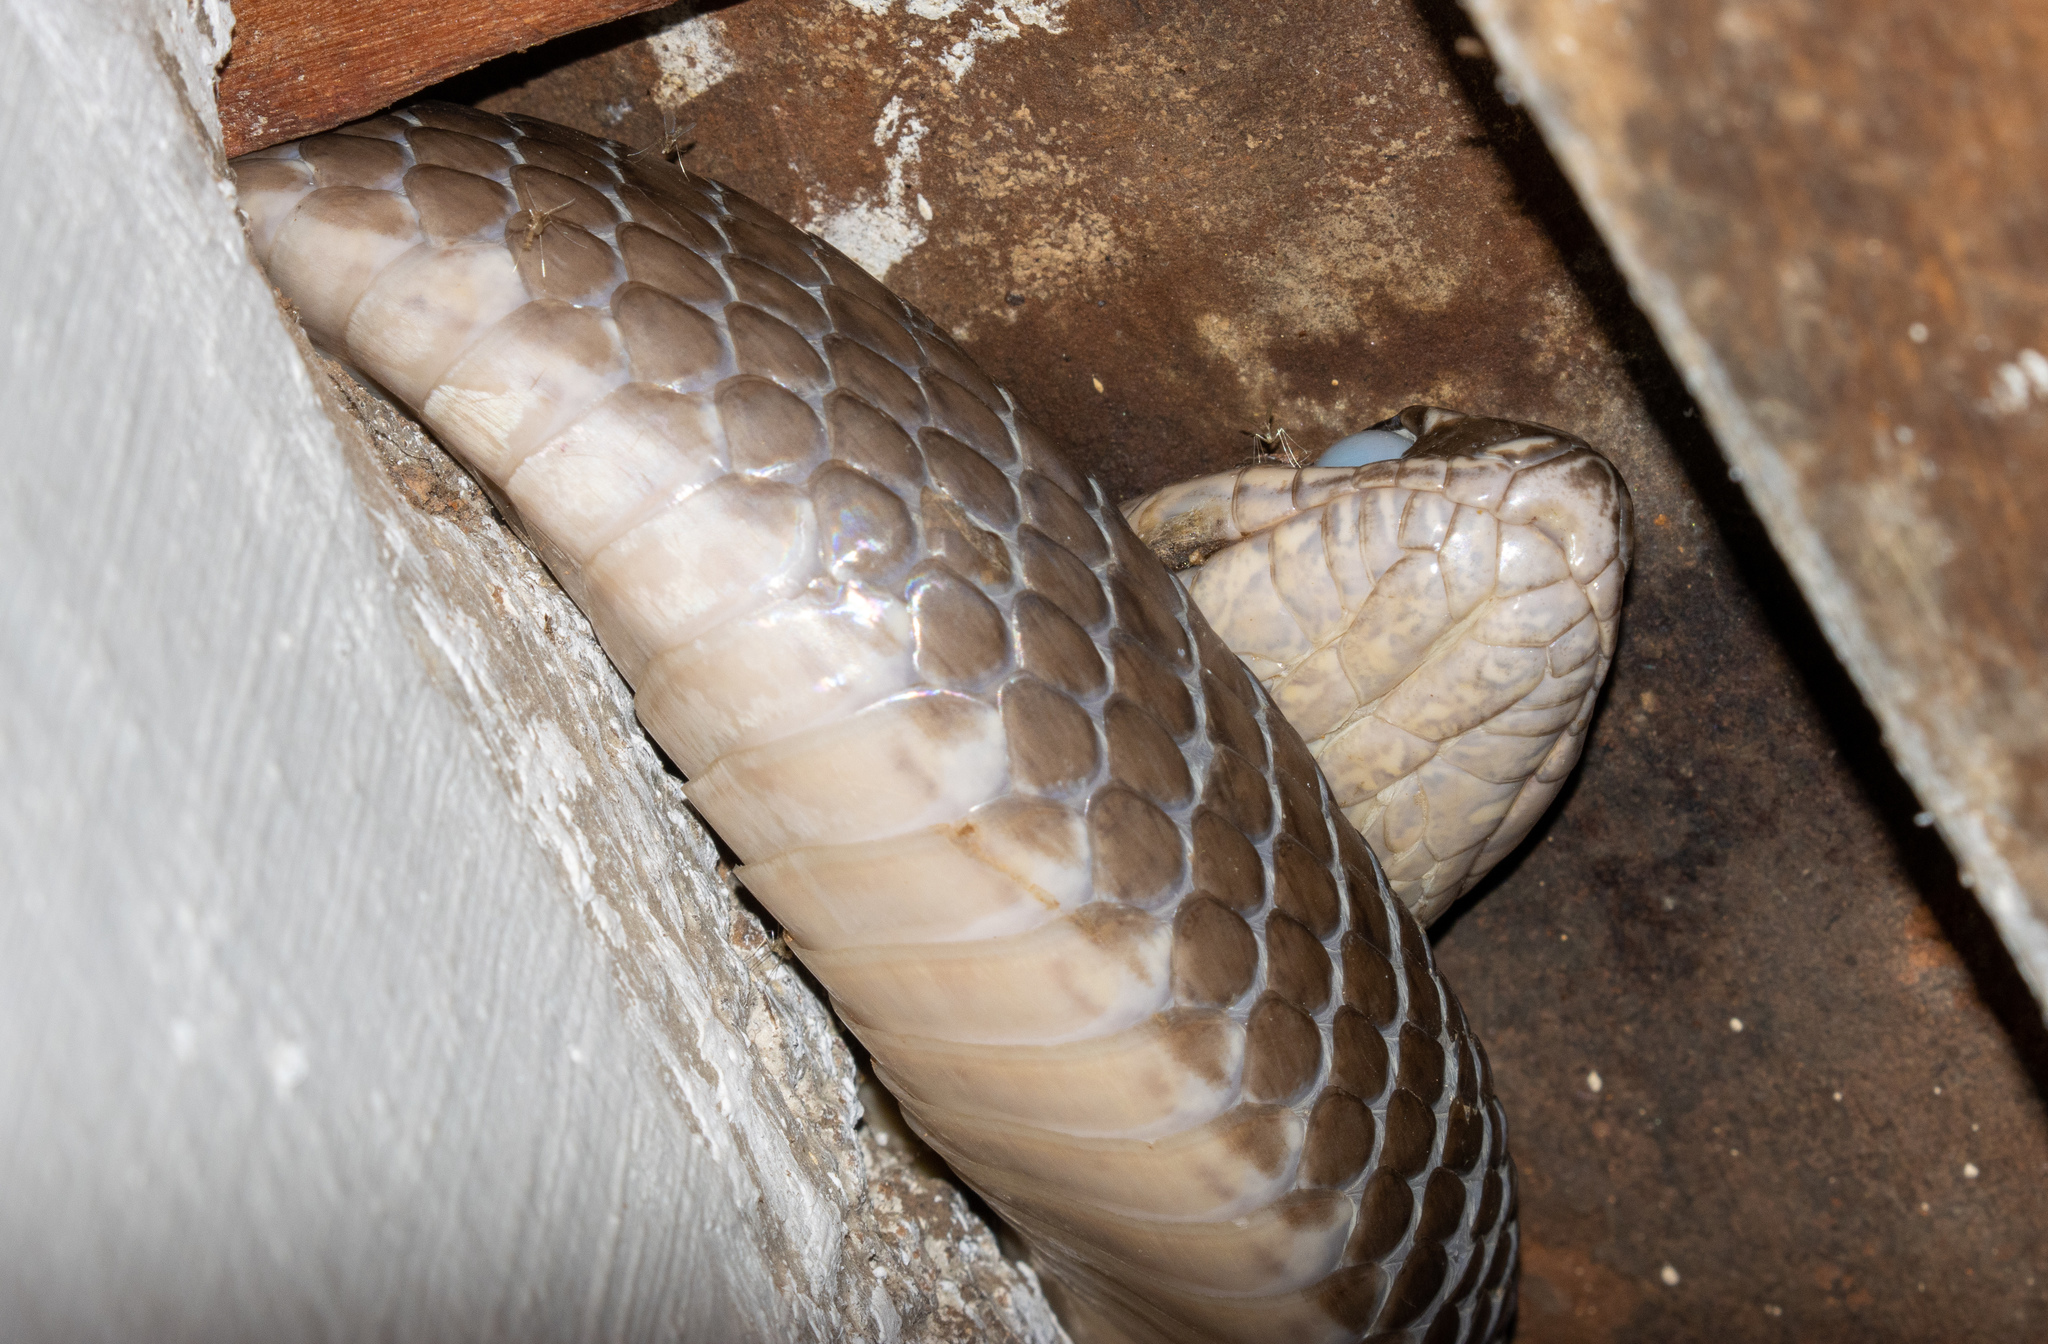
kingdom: Animalia
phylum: Chordata
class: Squamata
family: Colubridae
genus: Philodryas
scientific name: Philodryas nattereri
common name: Paraguay green racer
